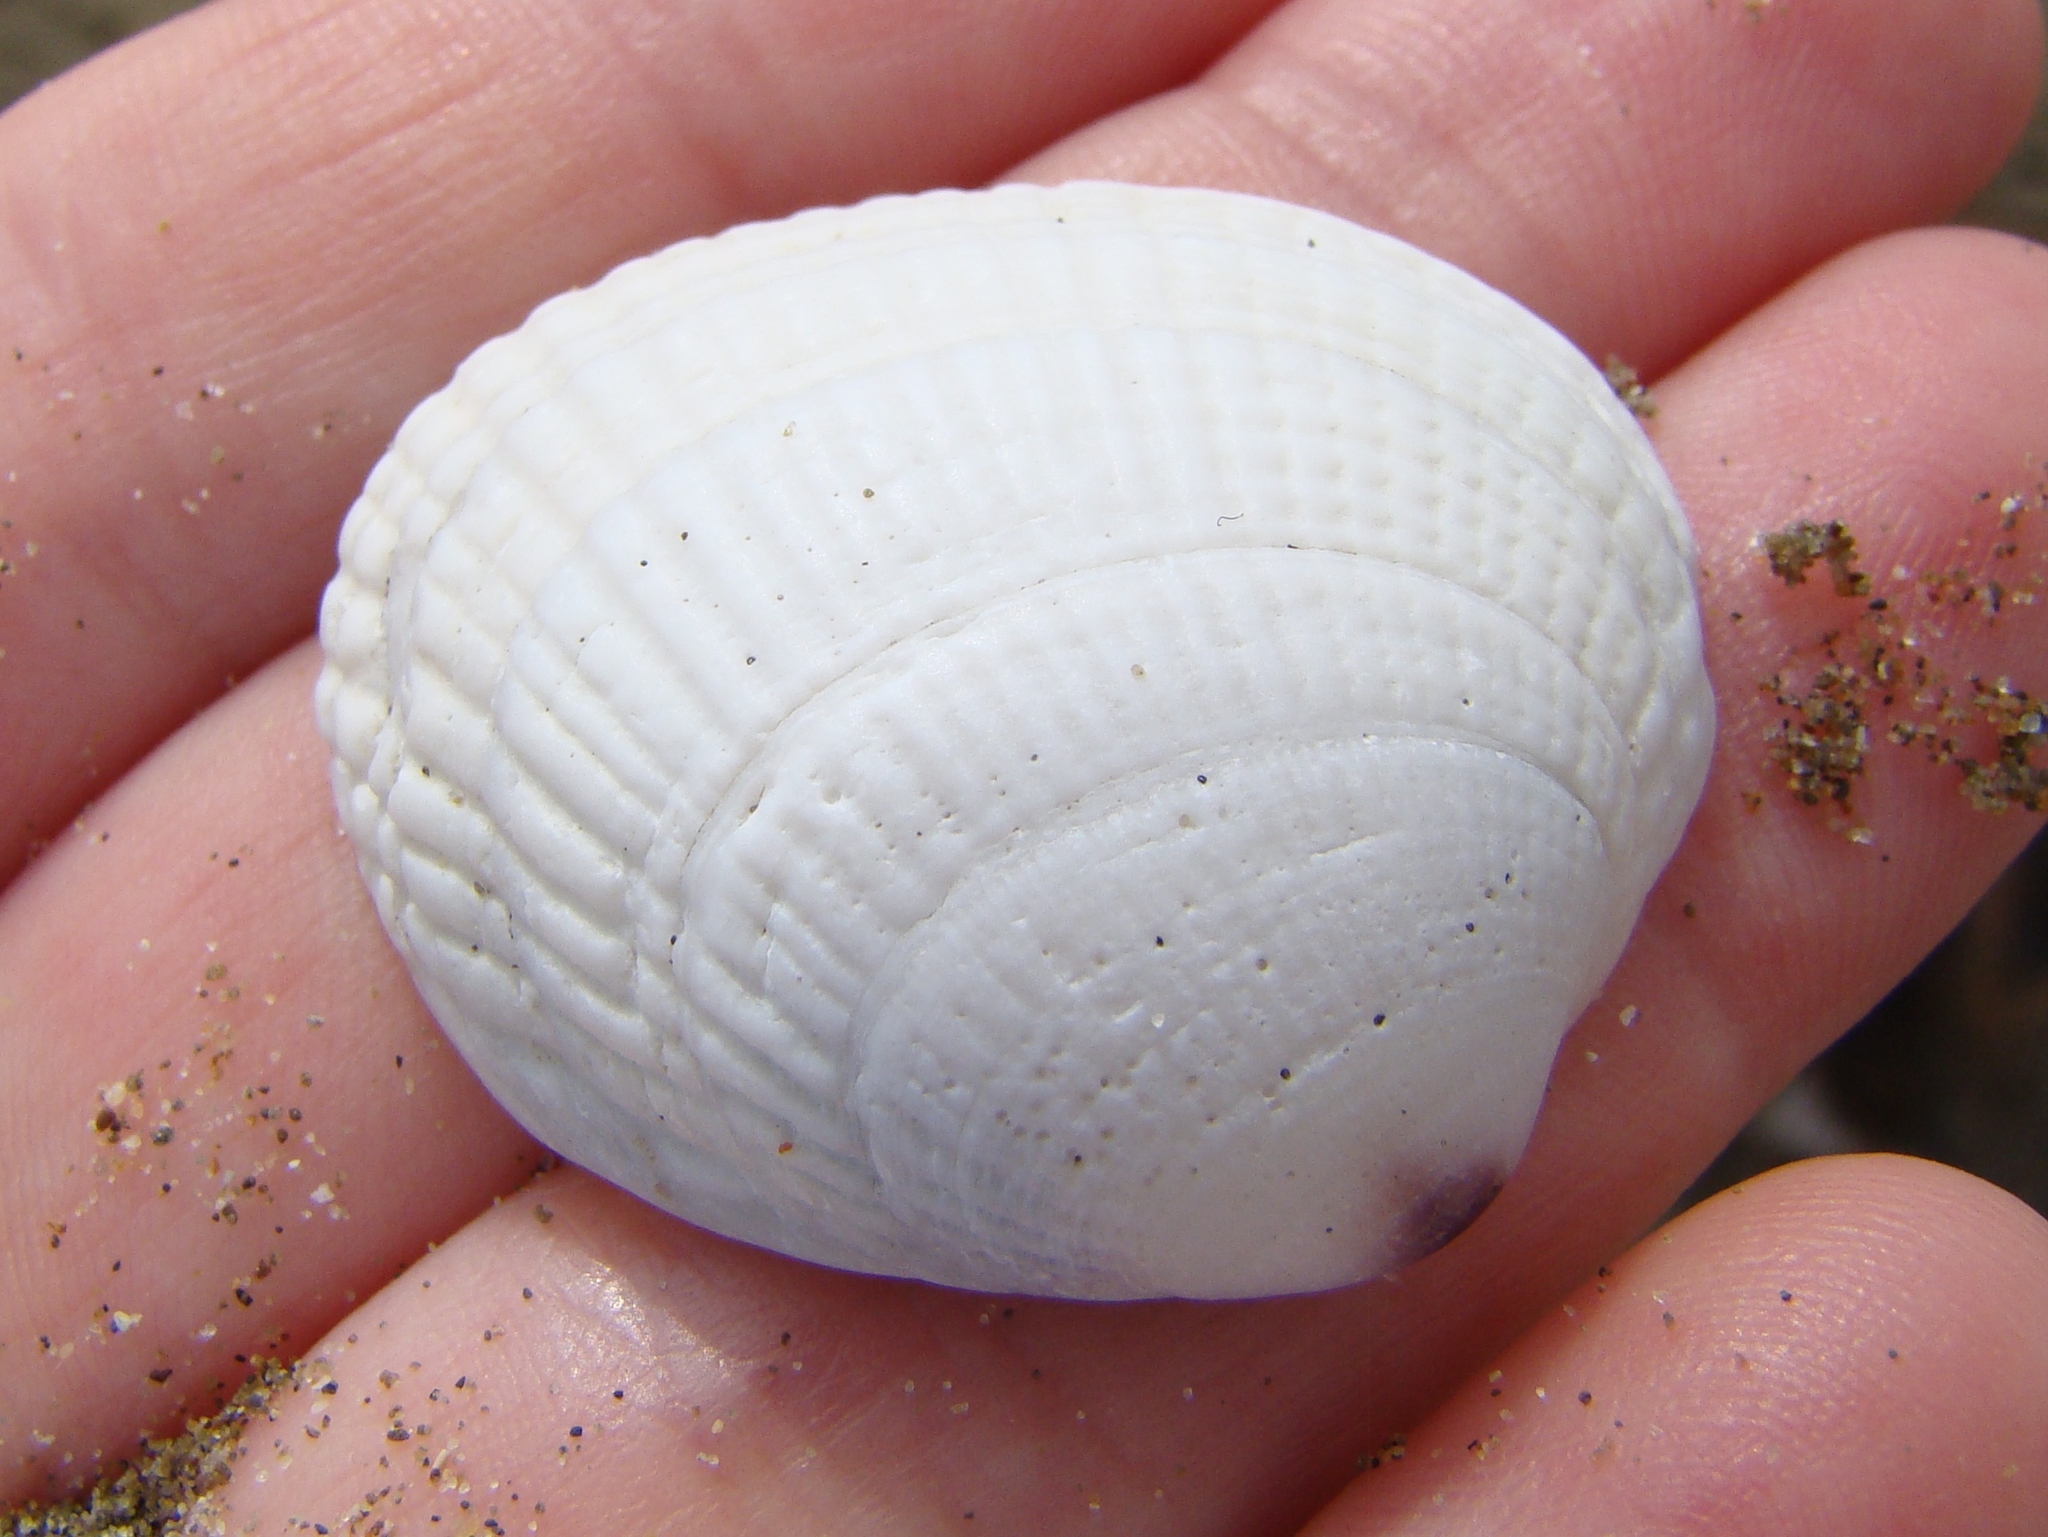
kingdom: Animalia
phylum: Mollusca
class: Bivalvia
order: Venerida
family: Veneridae
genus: Leukoma
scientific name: Leukoma crassicosta
